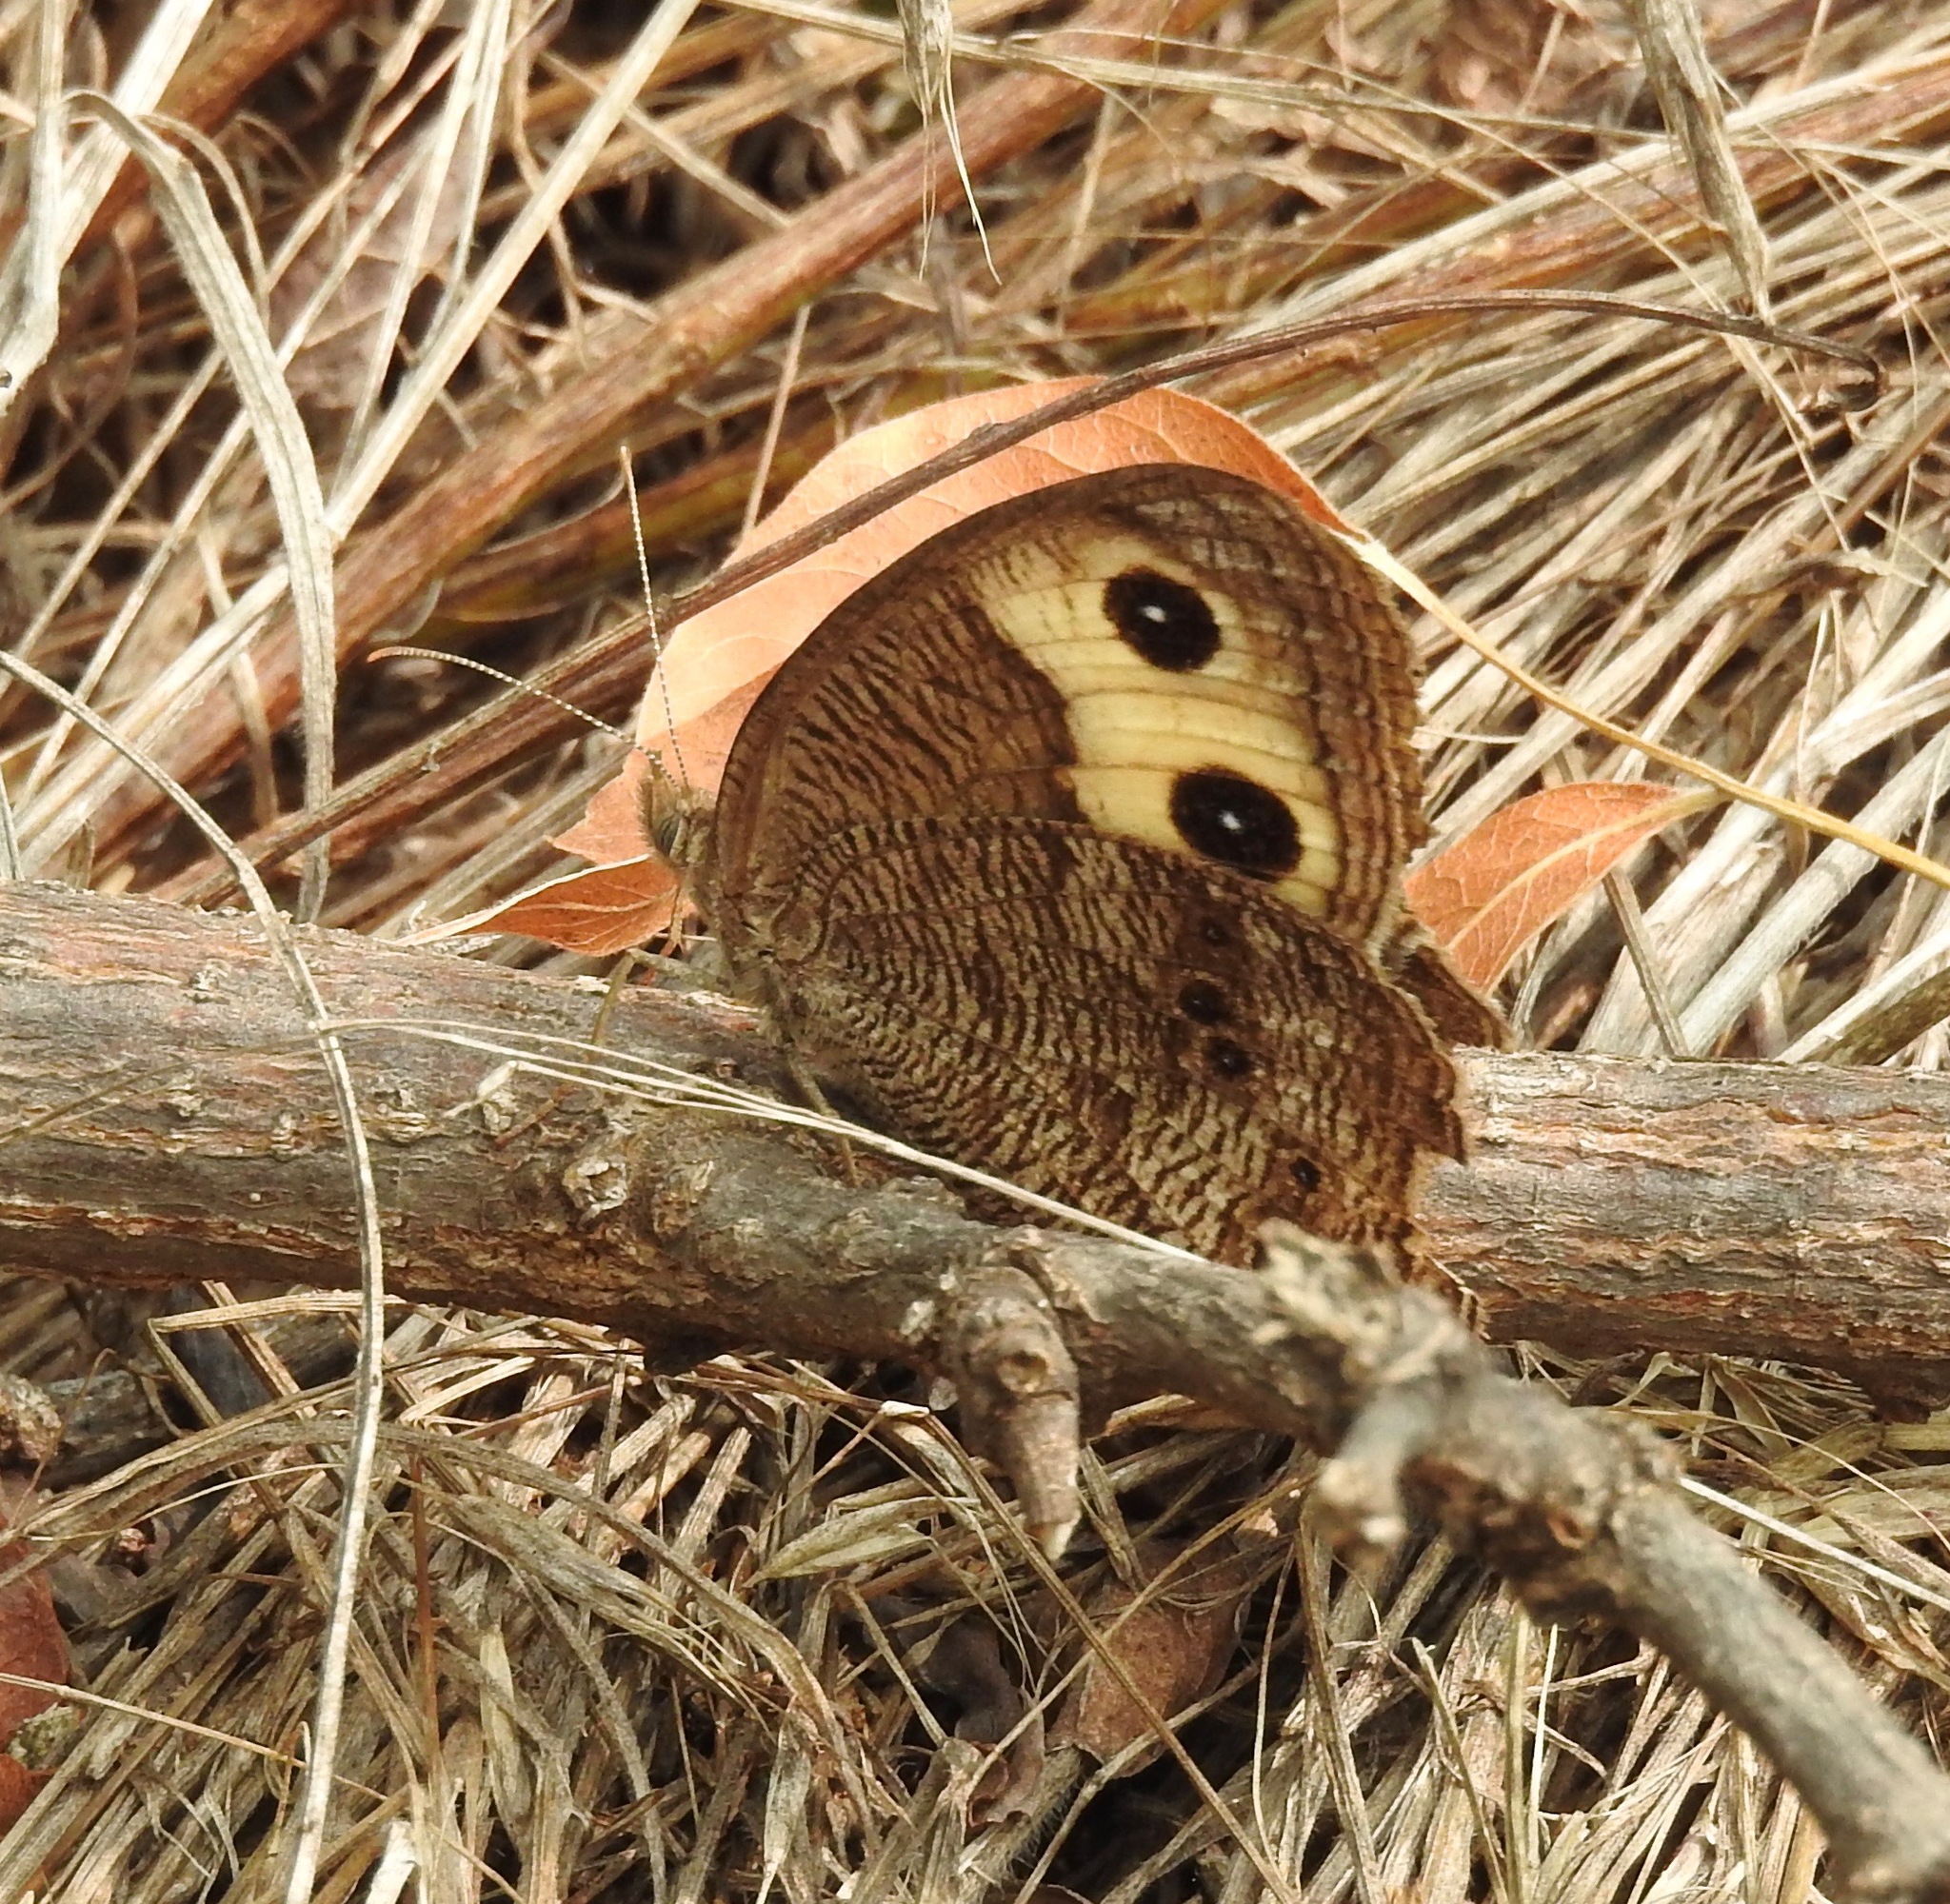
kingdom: Animalia
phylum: Arthropoda
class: Insecta
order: Lepidoptera
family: Nymphalidae
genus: Cercyonis
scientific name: Cercyonis pegala
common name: Common wood-nymph
